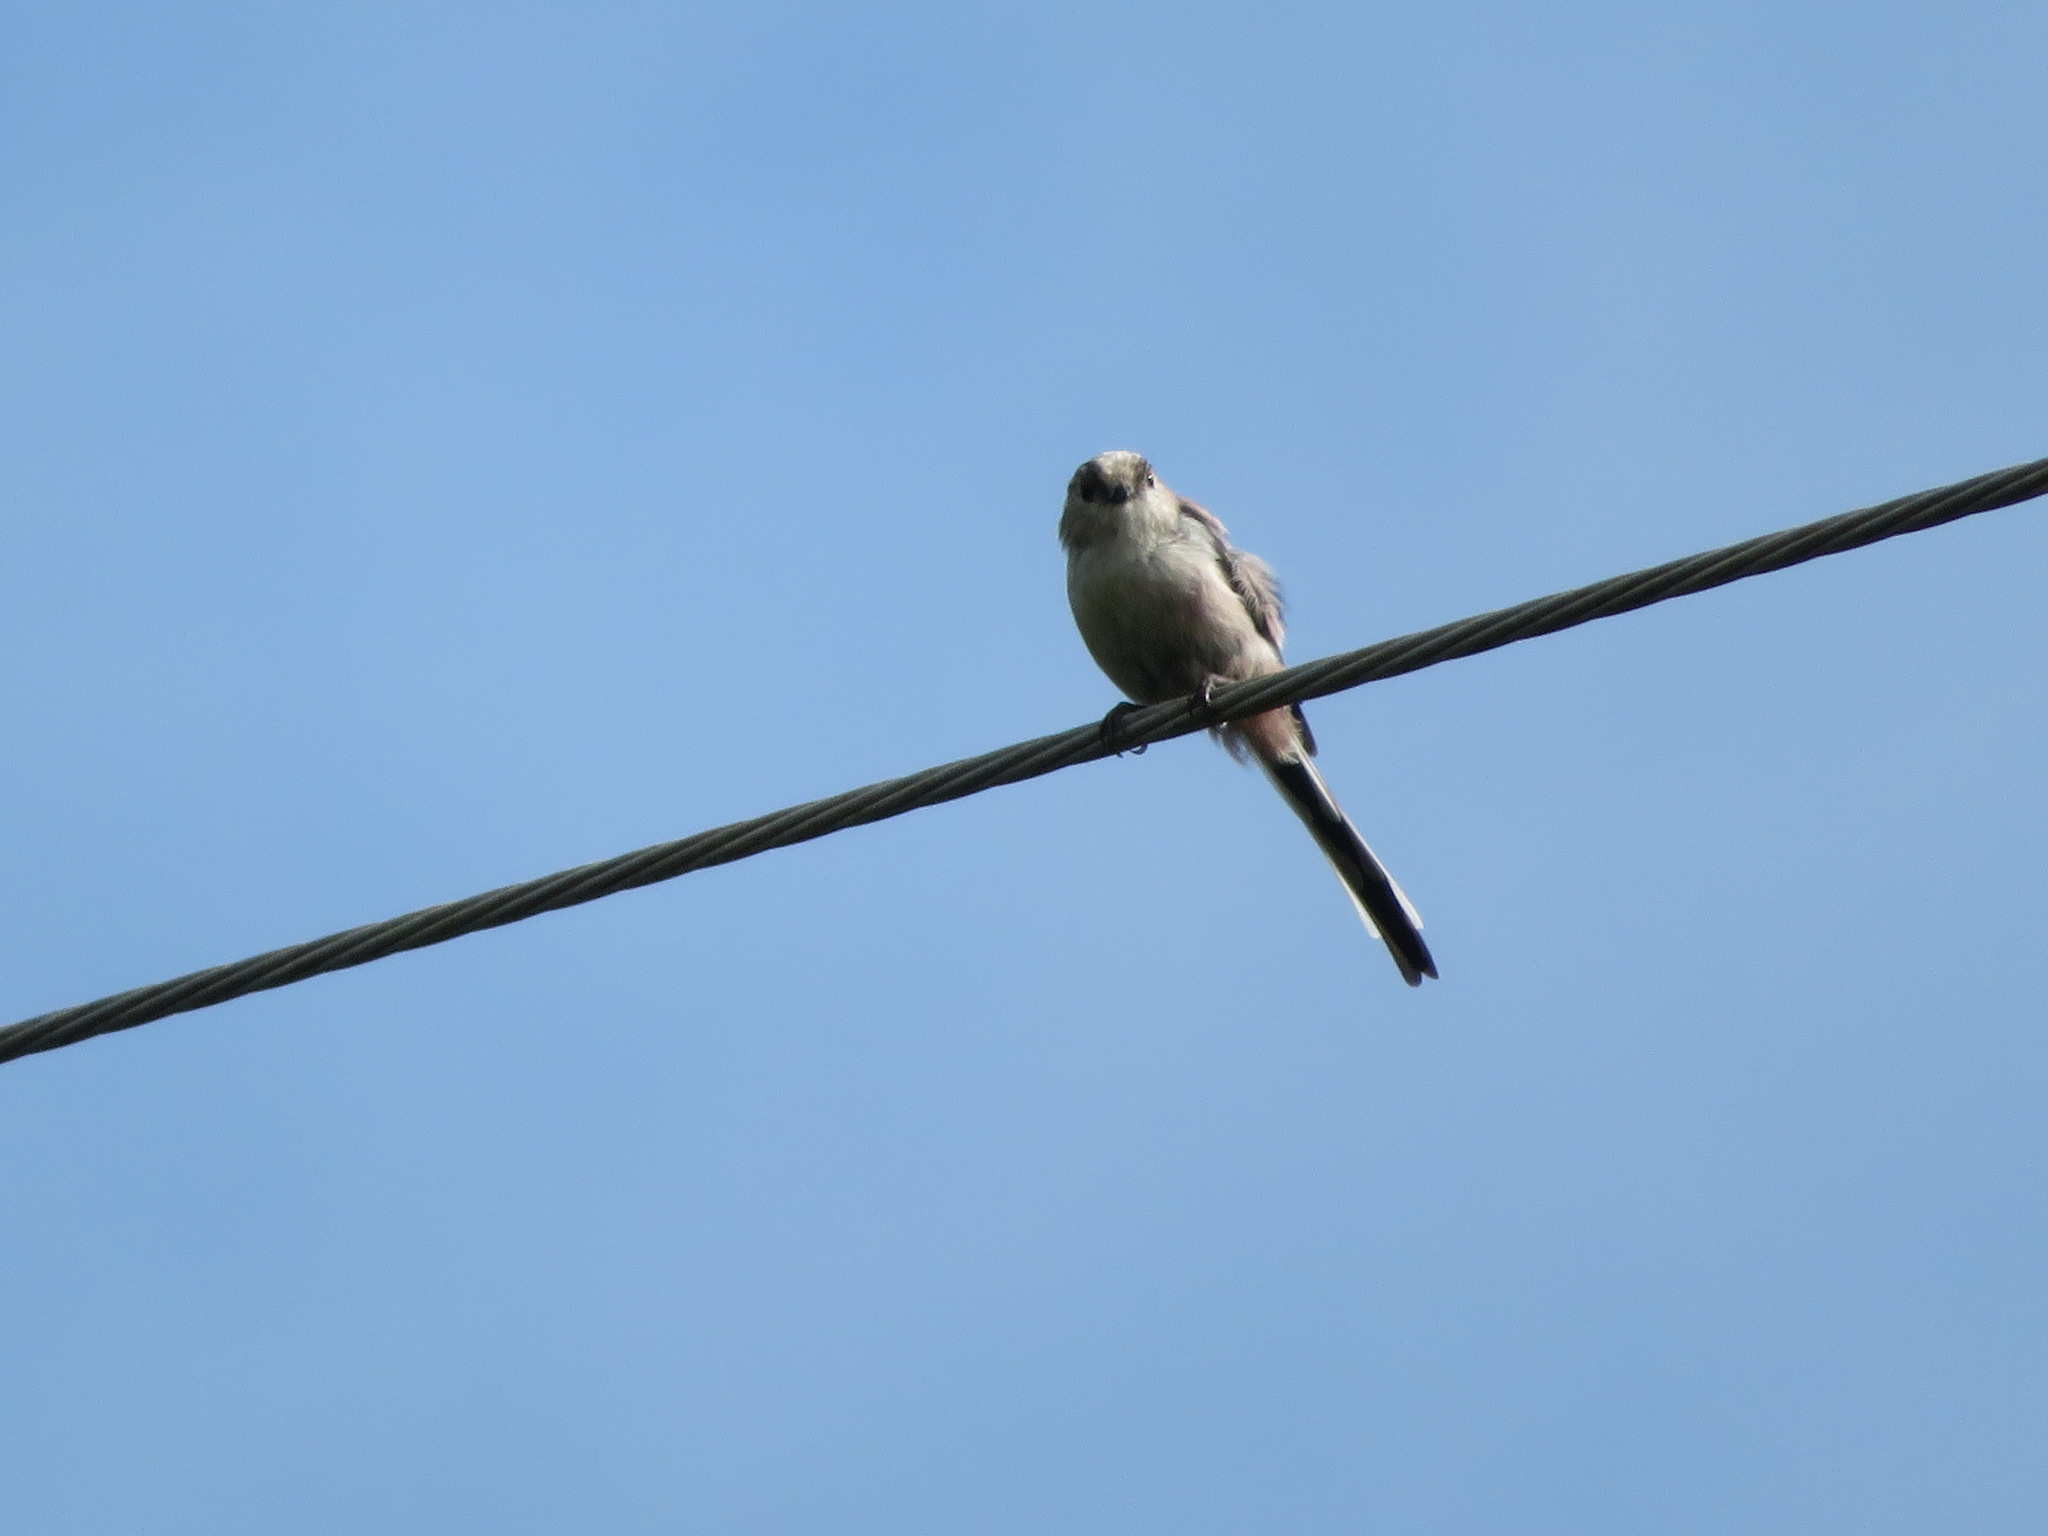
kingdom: Animalia
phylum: Chordata
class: Aves
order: Passeriformes
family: Aegithalidae
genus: Aegithalos
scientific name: Aegithalos caudatus
